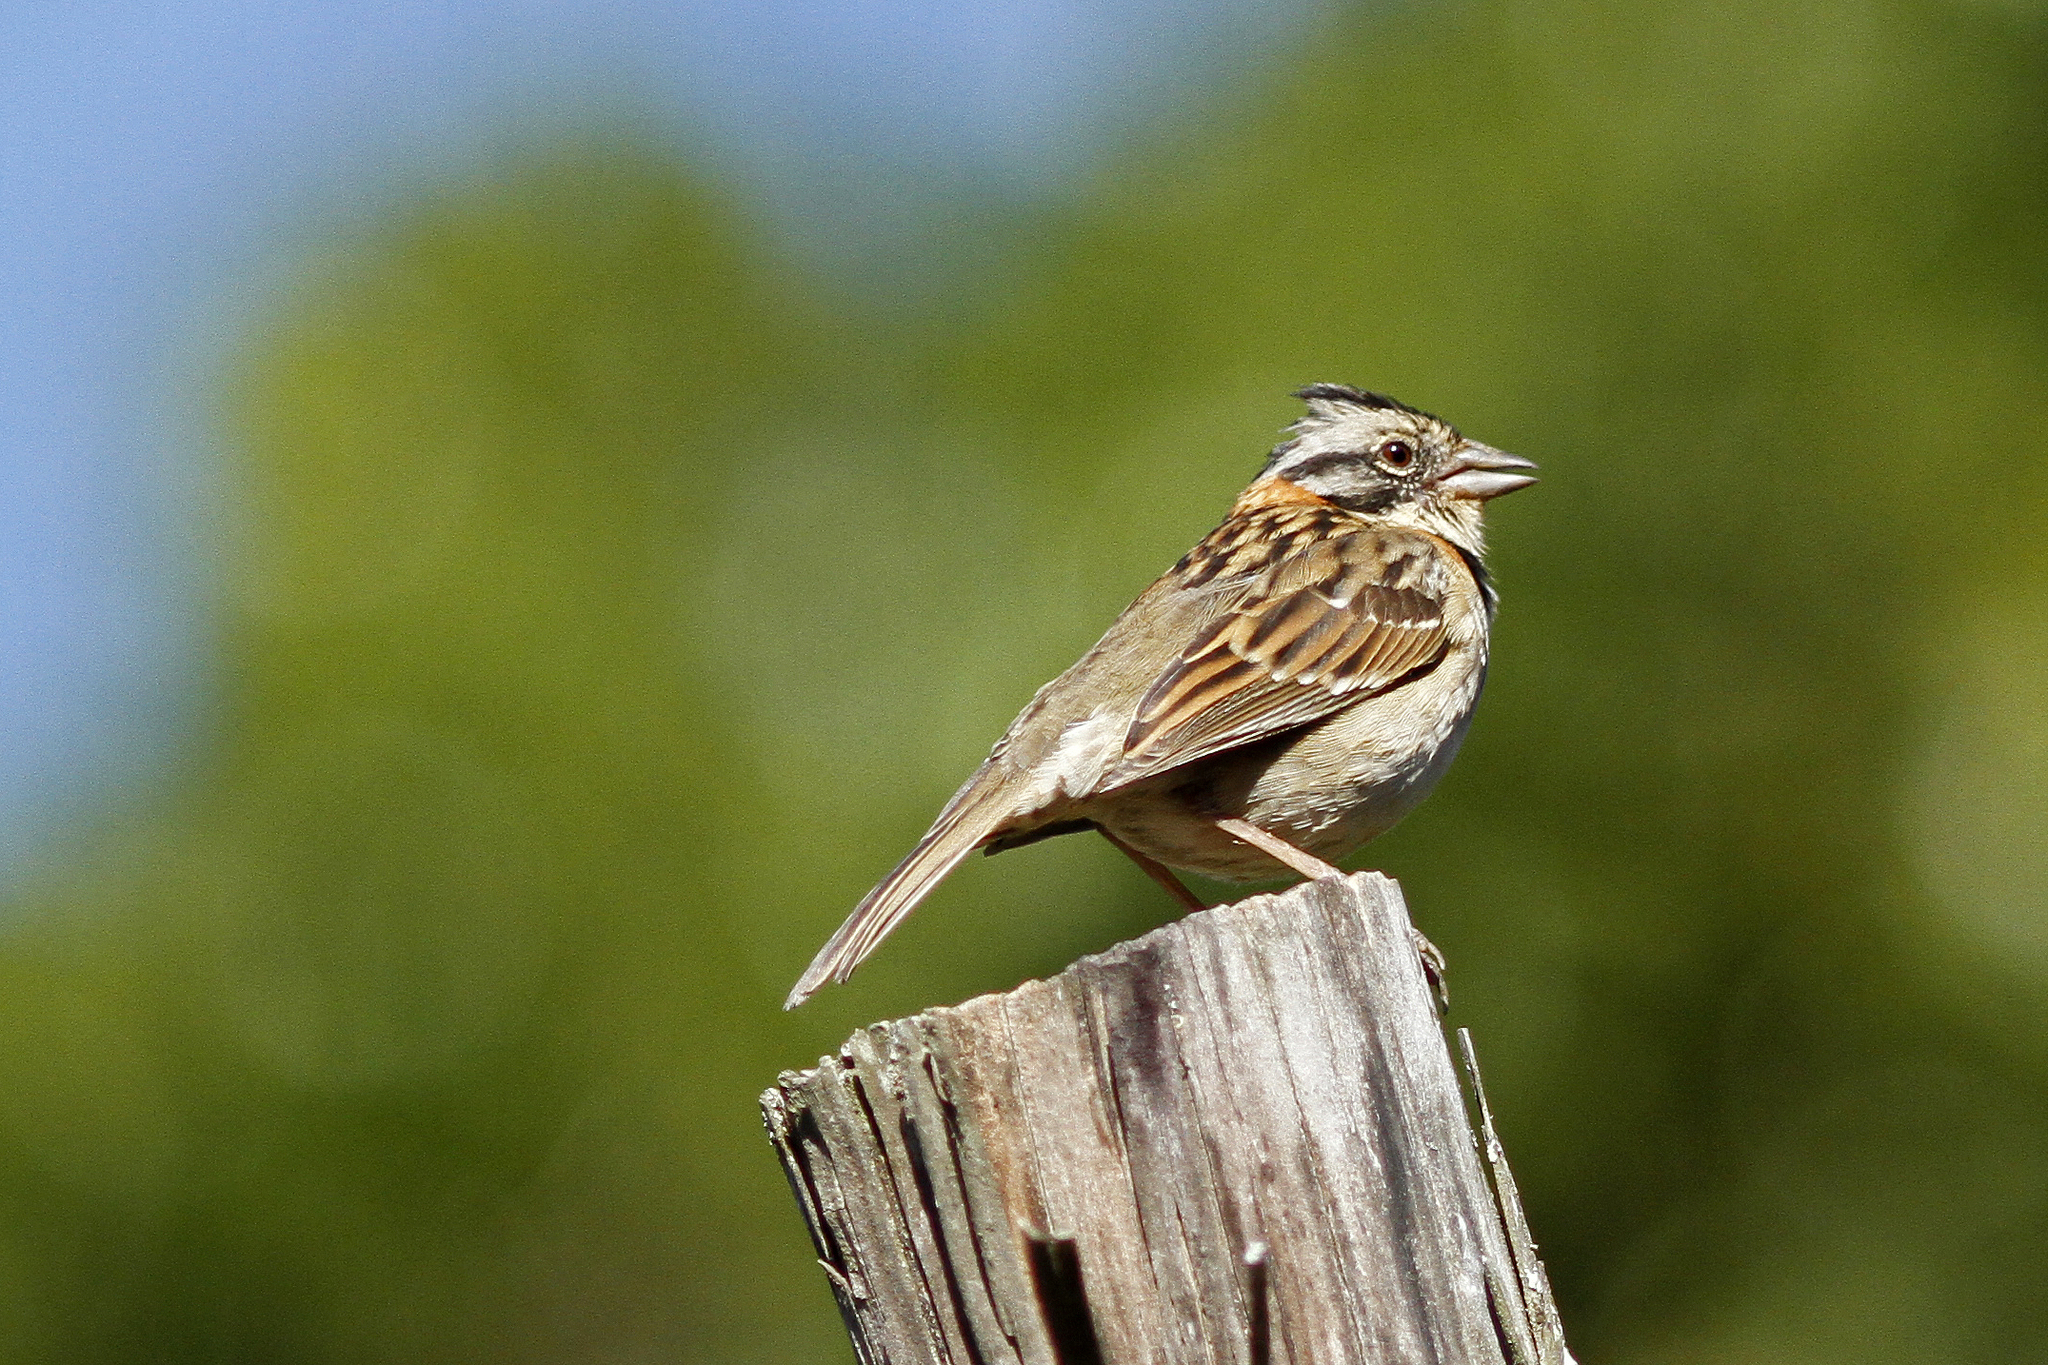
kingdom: Animalia
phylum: Chordata
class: Aves
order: Passeriformes
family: Passerellidae
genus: Zonotrichia
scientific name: Zonotrichia capensis
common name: Rufous-collared sparrow
